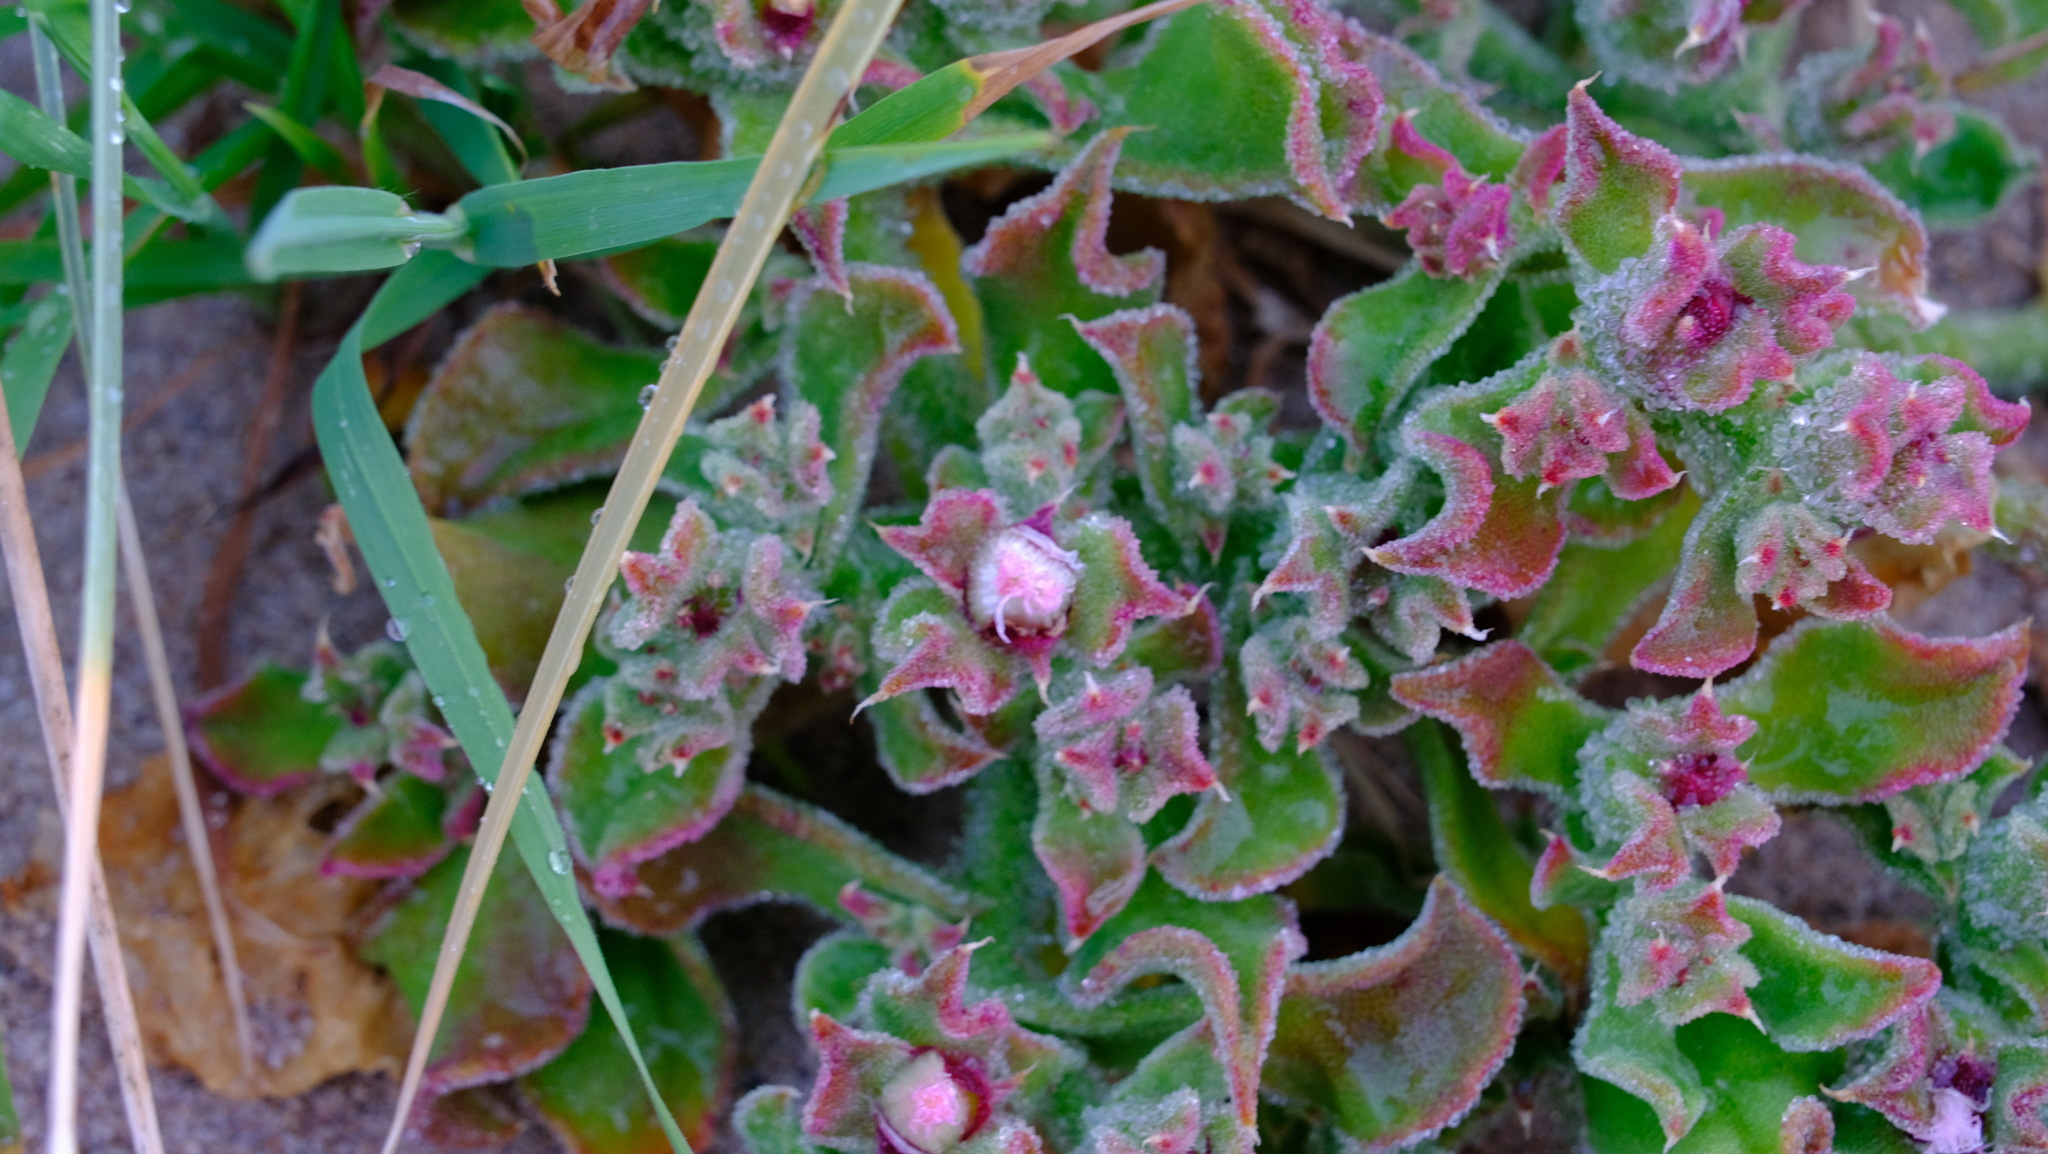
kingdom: Plantae
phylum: Tracheophyta
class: Magnoliopsida
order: Caryophyllales
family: Aizoaceae
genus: Mesembryanthemum
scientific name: Mesembryanthemum crystallinum
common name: Common iceplant
